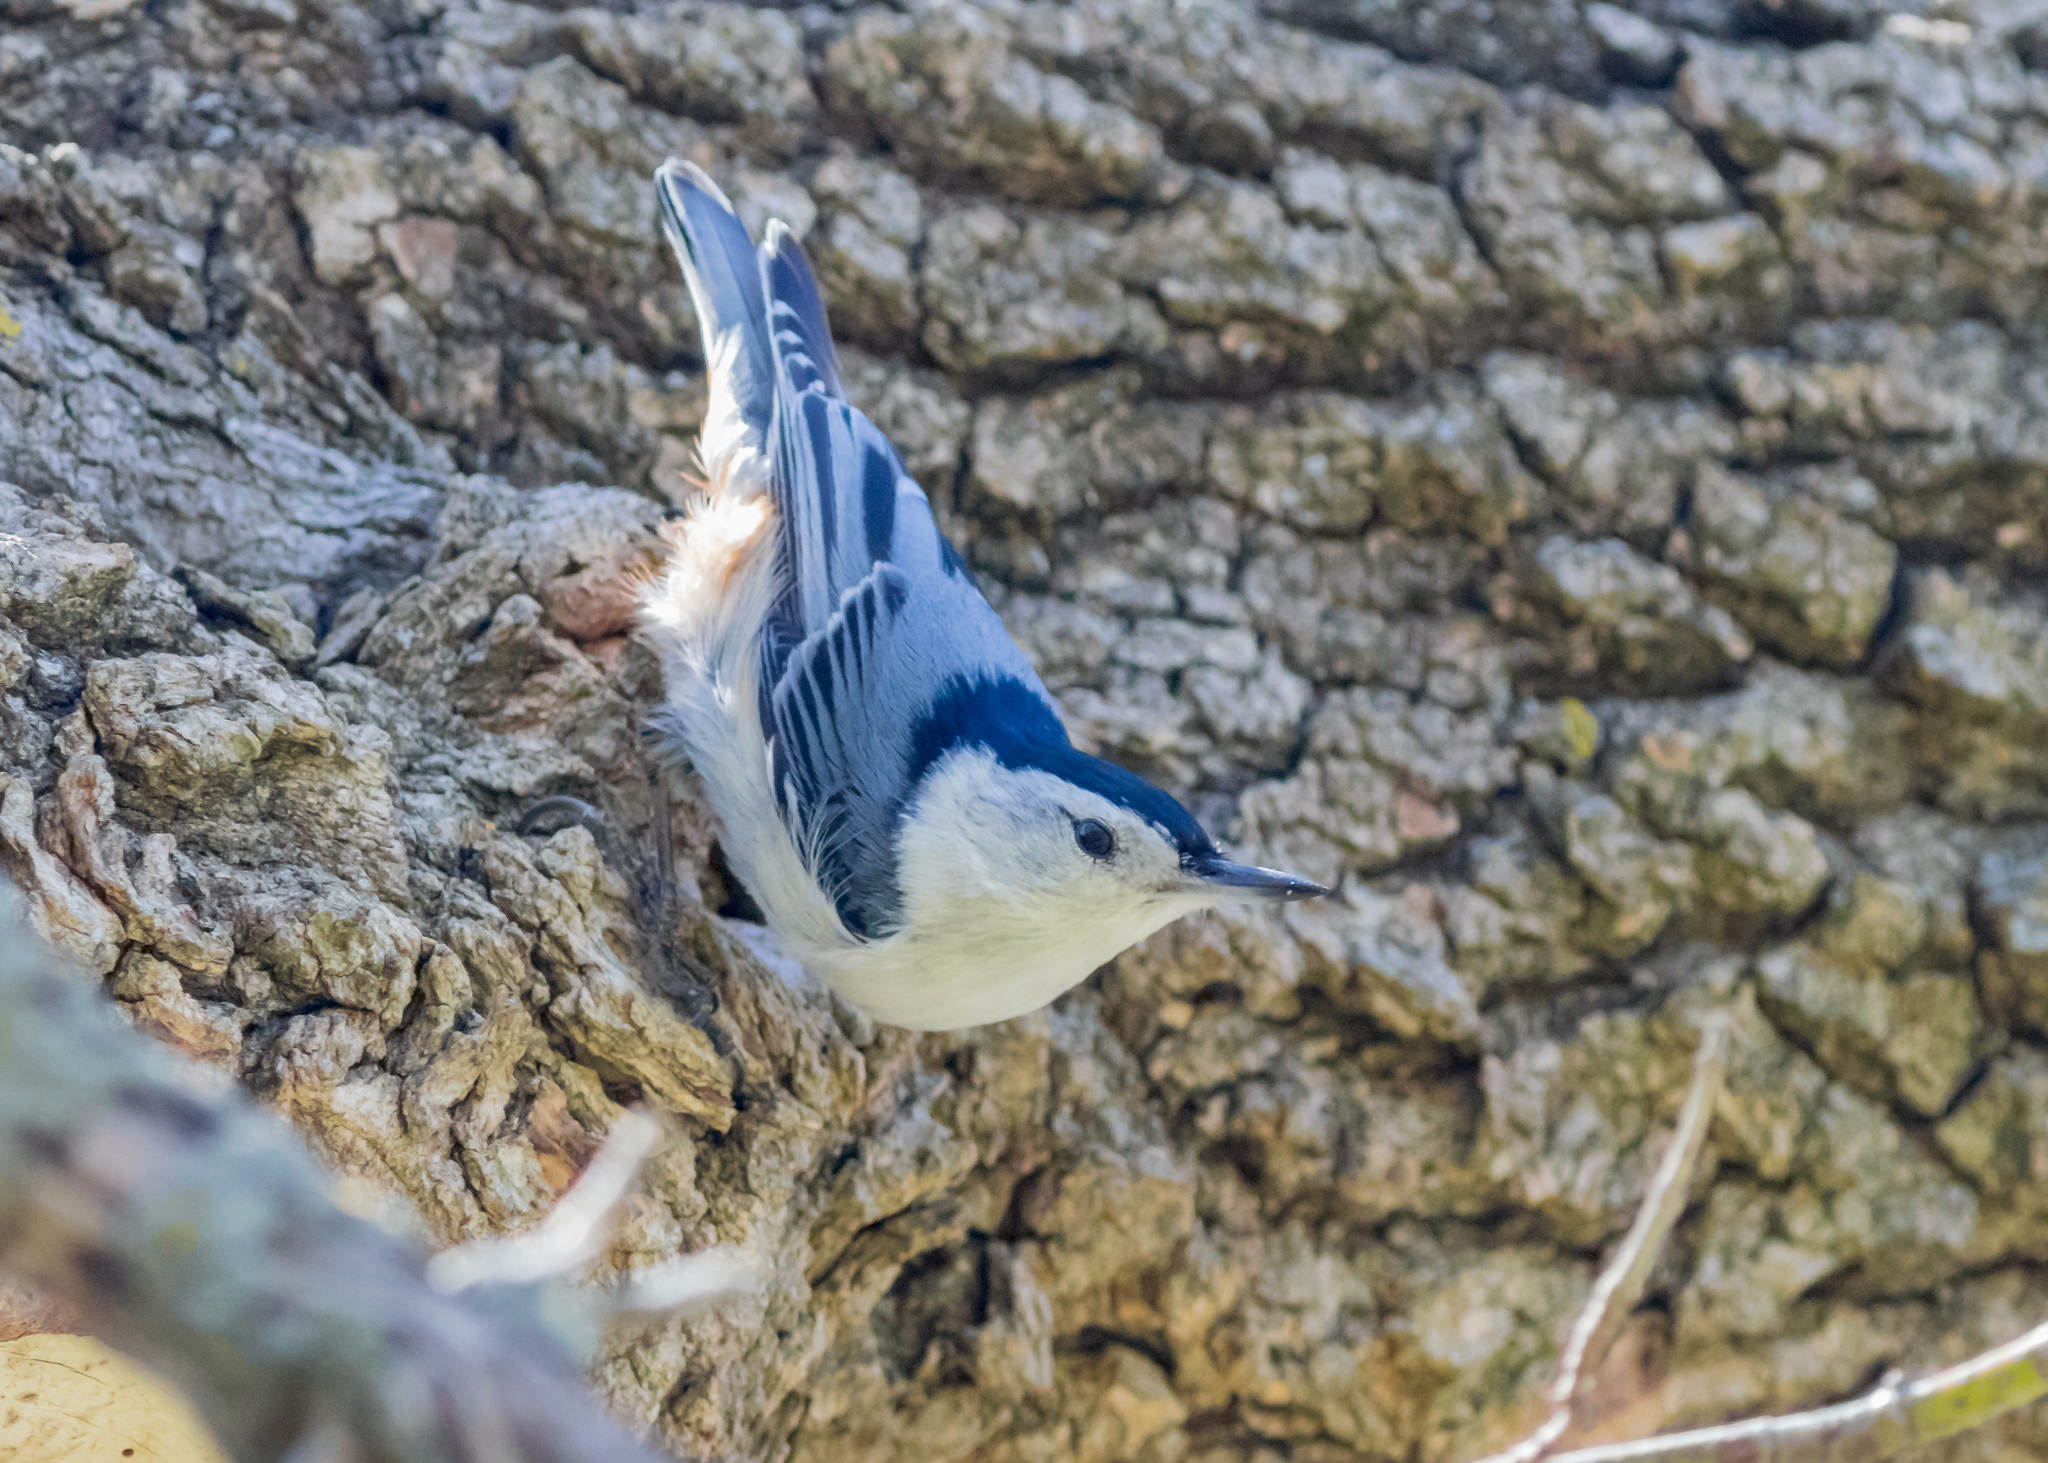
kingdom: Animalia
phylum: Chordata
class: Aves
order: Passeriformes
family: Sittidae
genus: Sitta
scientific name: Sitta carolinensis
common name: White-breasted nuthatch
